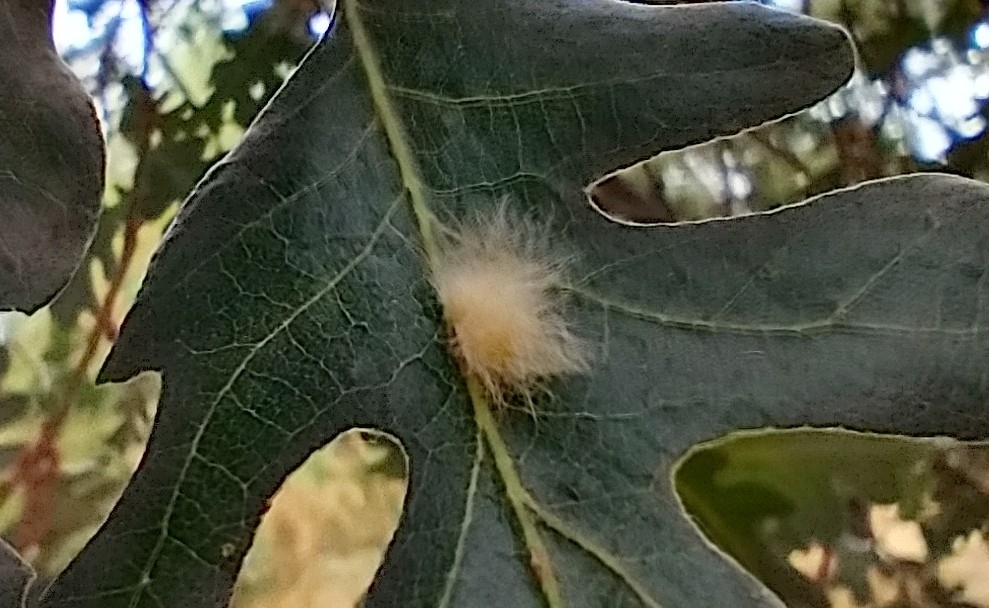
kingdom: Animalia
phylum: Arthropoda
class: Insecta
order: Hymenoptera
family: Cynipidae
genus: Andricus
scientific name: Andricus Druon fullawayi
